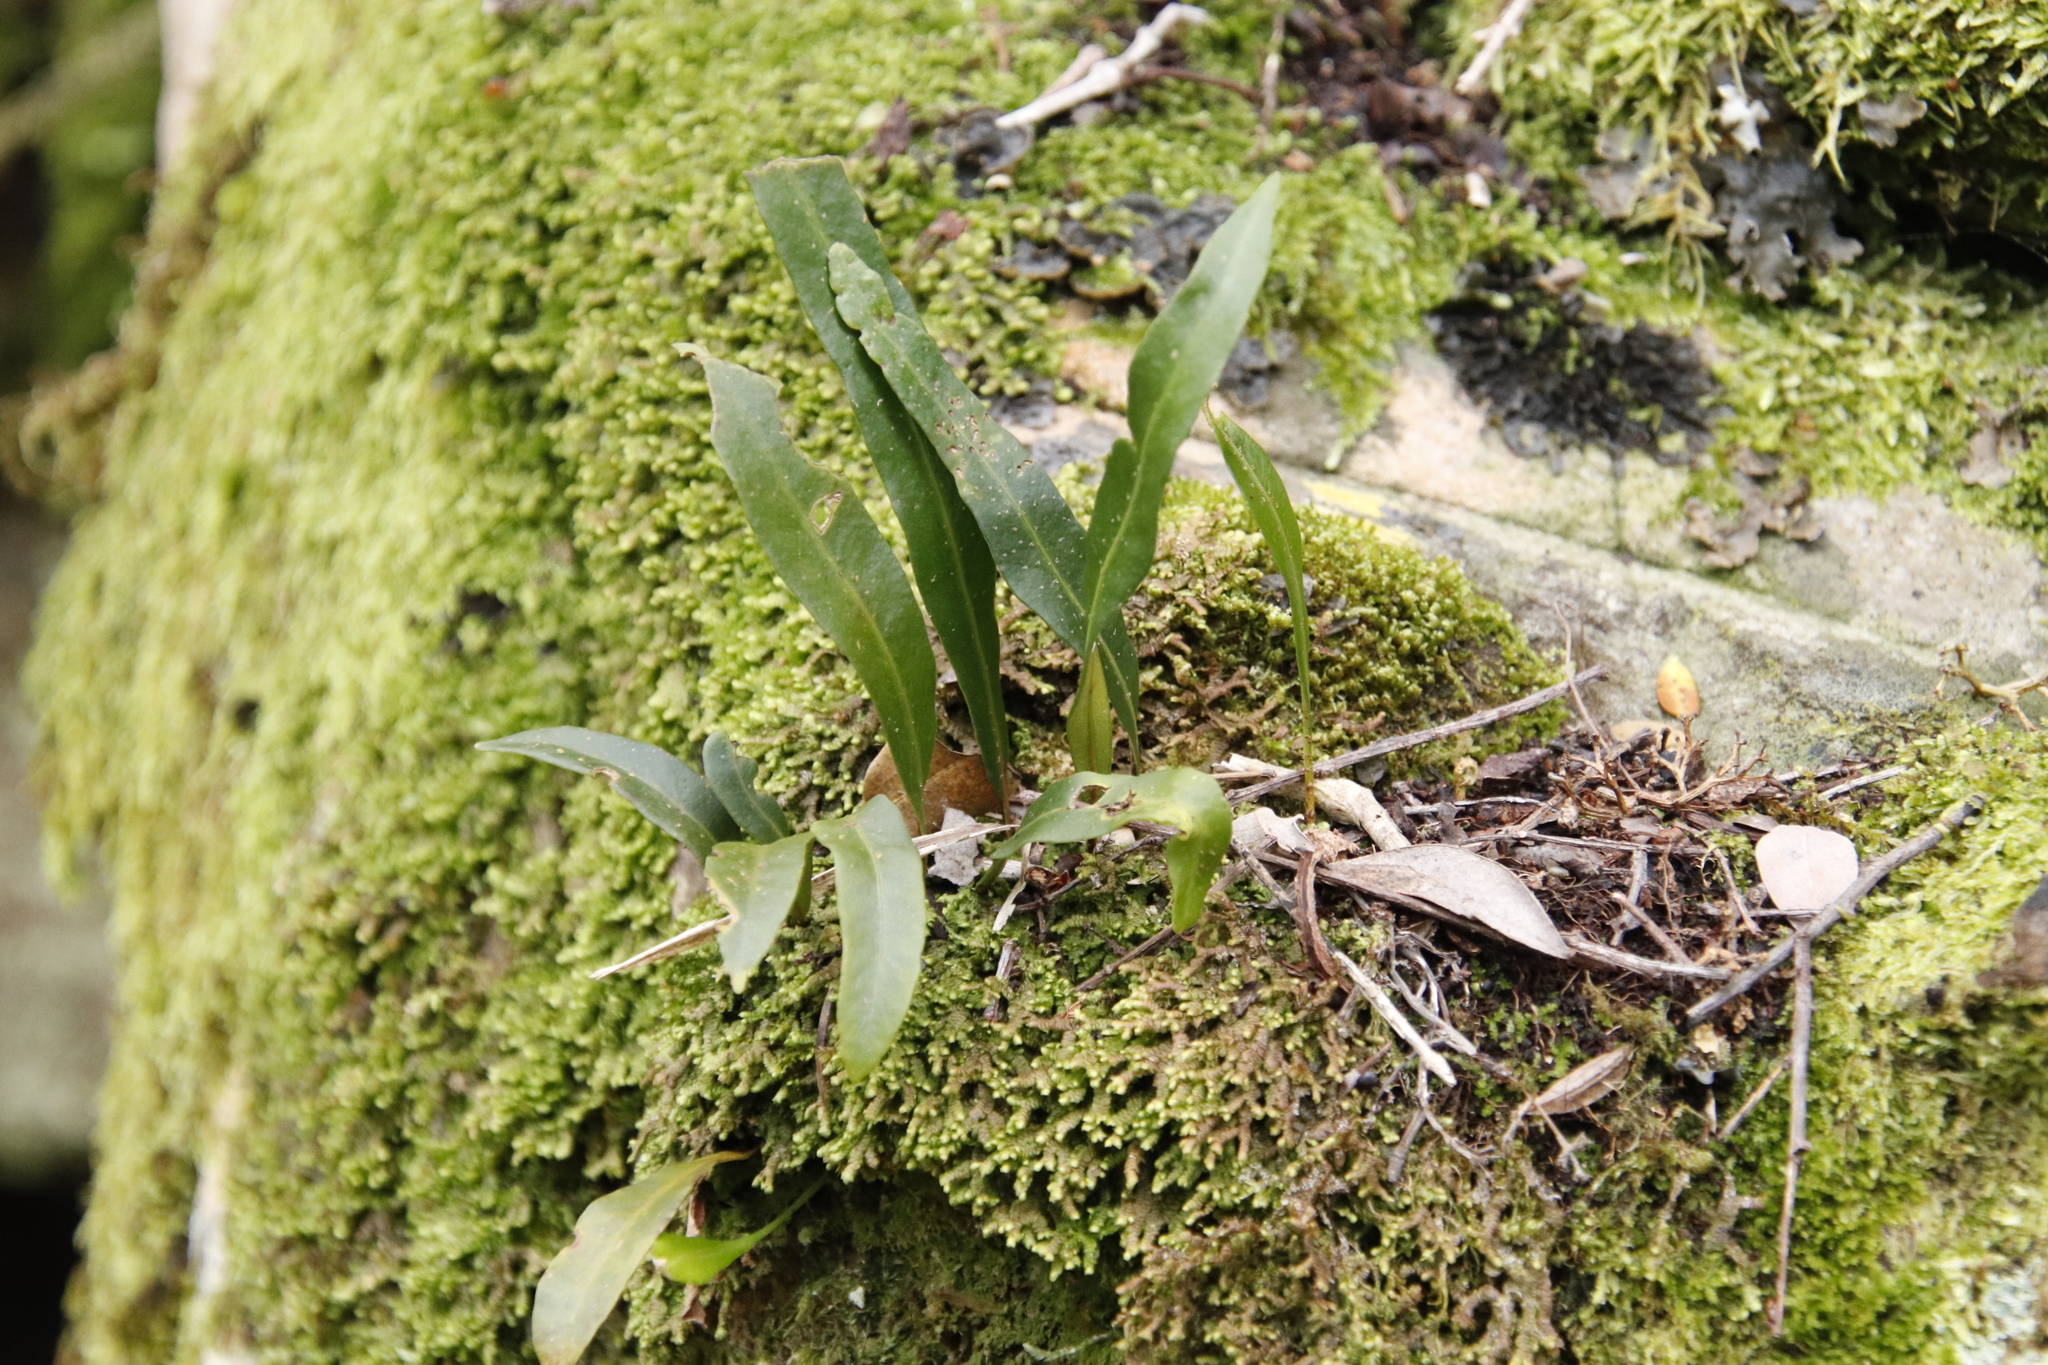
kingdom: Plantae
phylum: Tracheophyta
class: Polypodiopsida
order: Polypodiales
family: Polypodiaceae
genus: Pleopeltis
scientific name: Pleopeltis macrocarpa
